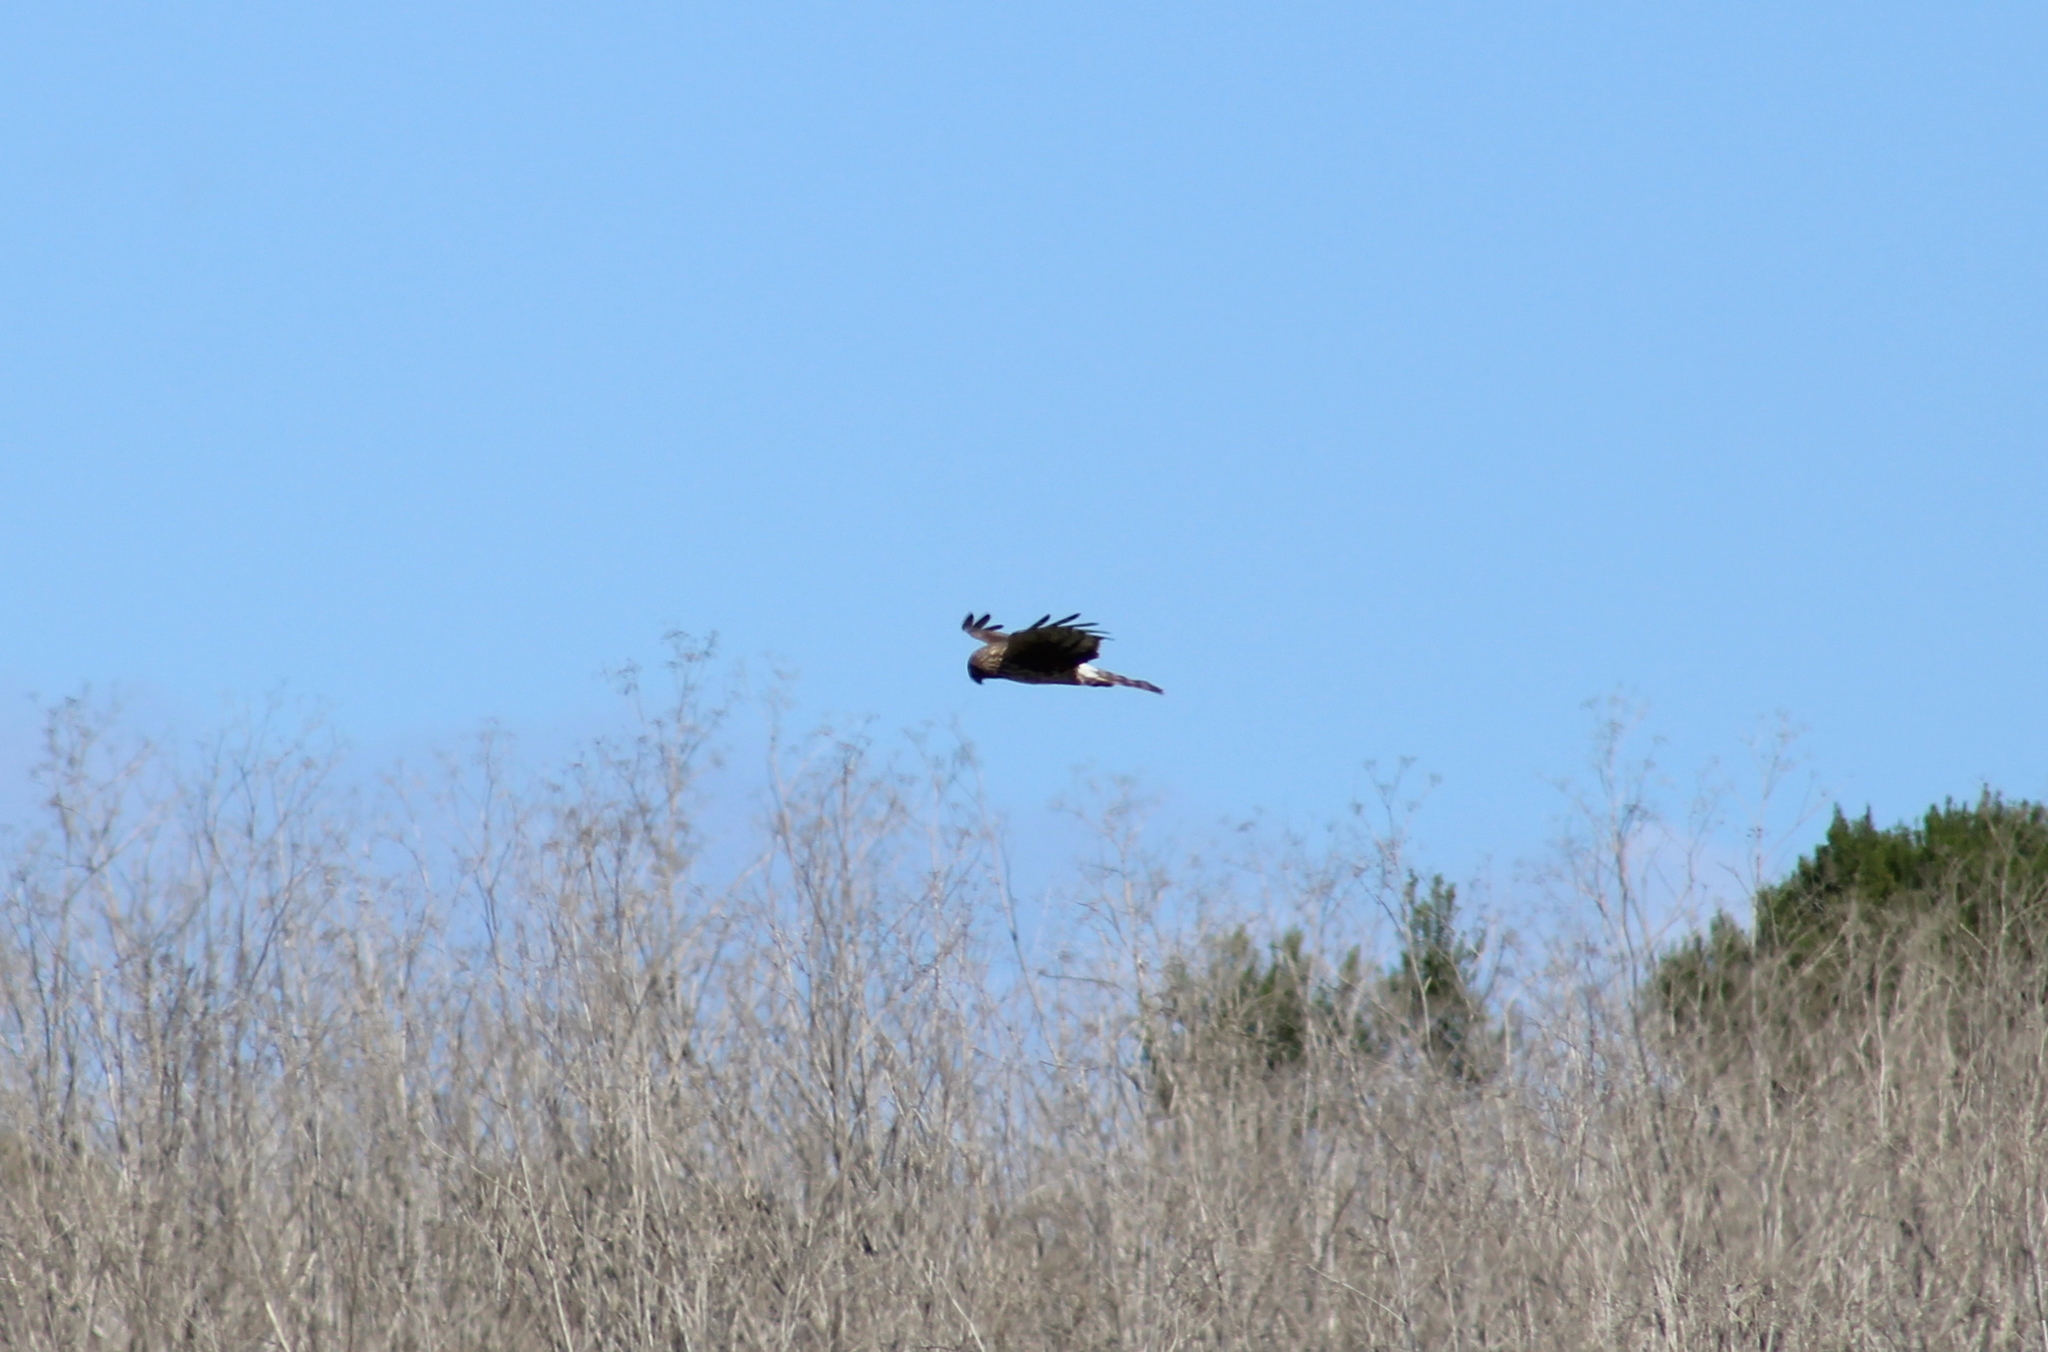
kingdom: Animalia
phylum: Chordata
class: Aves
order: Accipitriformes
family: Accipitridae
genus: Circus
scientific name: Circus cyaneus
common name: Hen harrier
